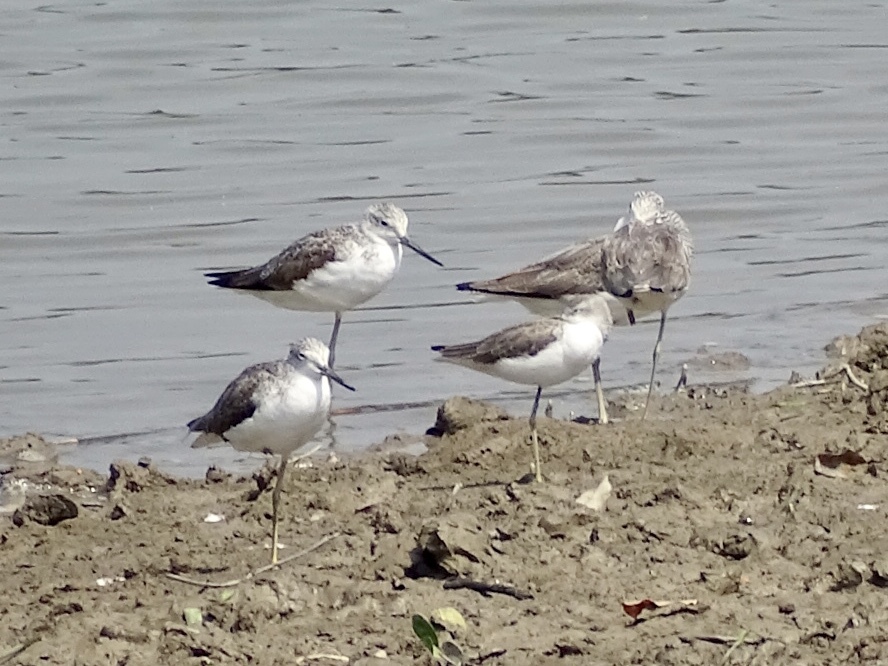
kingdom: Animalia
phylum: Chordata
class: Aves
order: Charadriiformes
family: Scolopacidae
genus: Tringa
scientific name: Tringa nebularia
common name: Common greenshank
